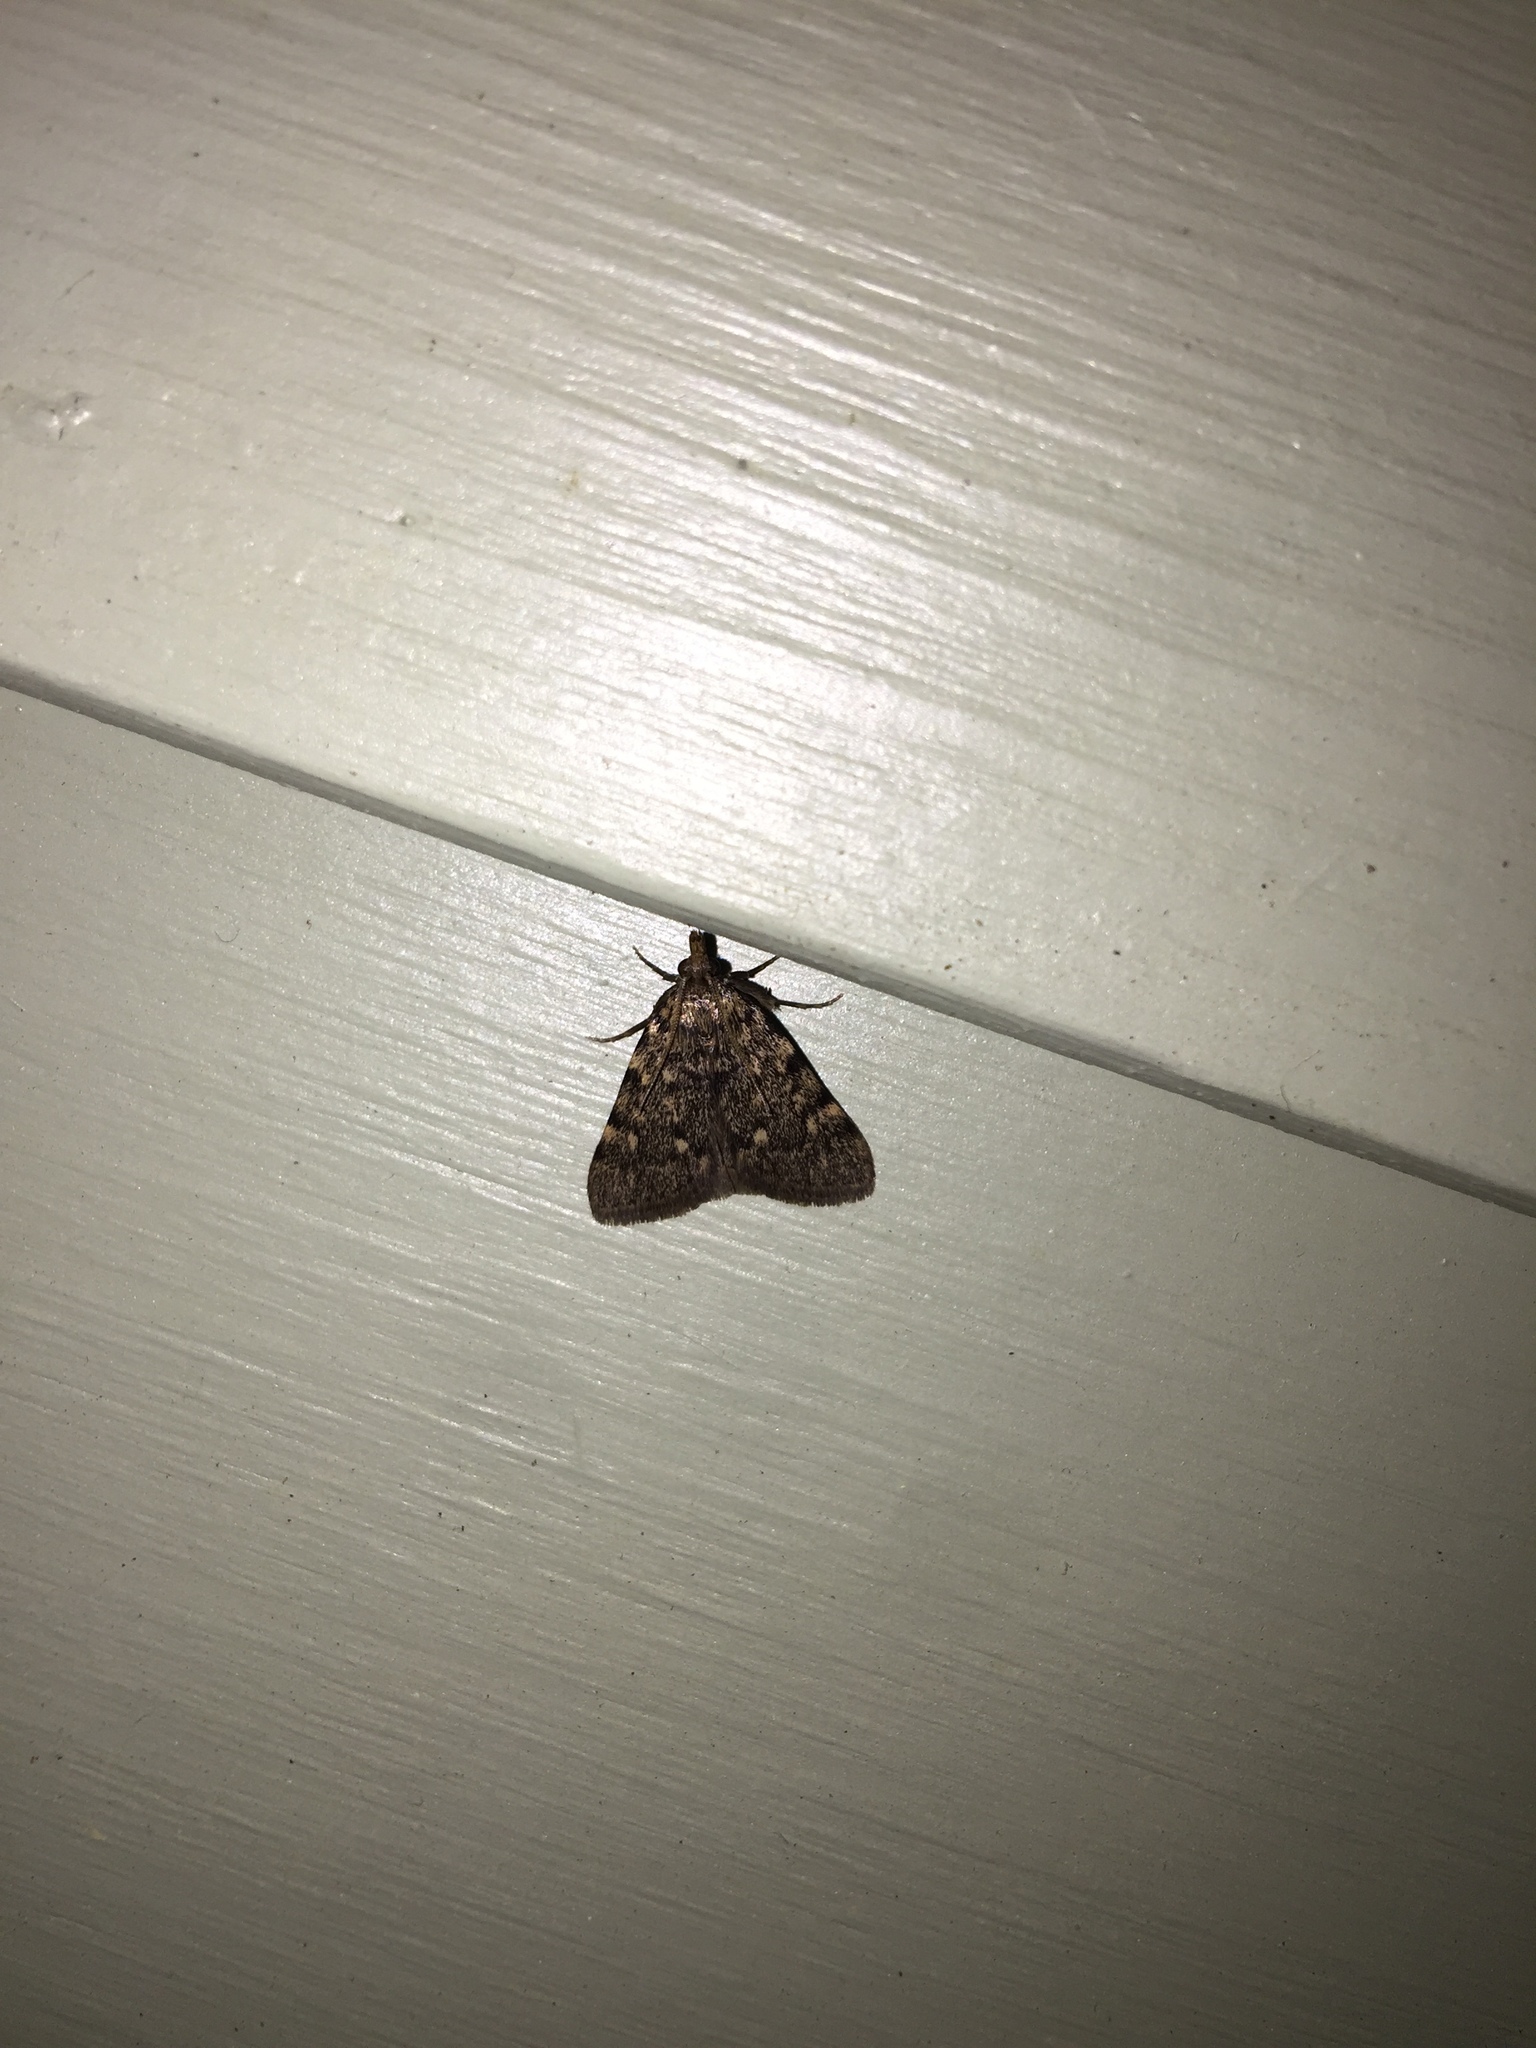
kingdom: Animalia
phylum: Arthropoda
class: Insecta
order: Lepidoptera
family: Pyralidae
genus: Aglossa
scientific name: Aglossa pinguinalis
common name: Large tabby
